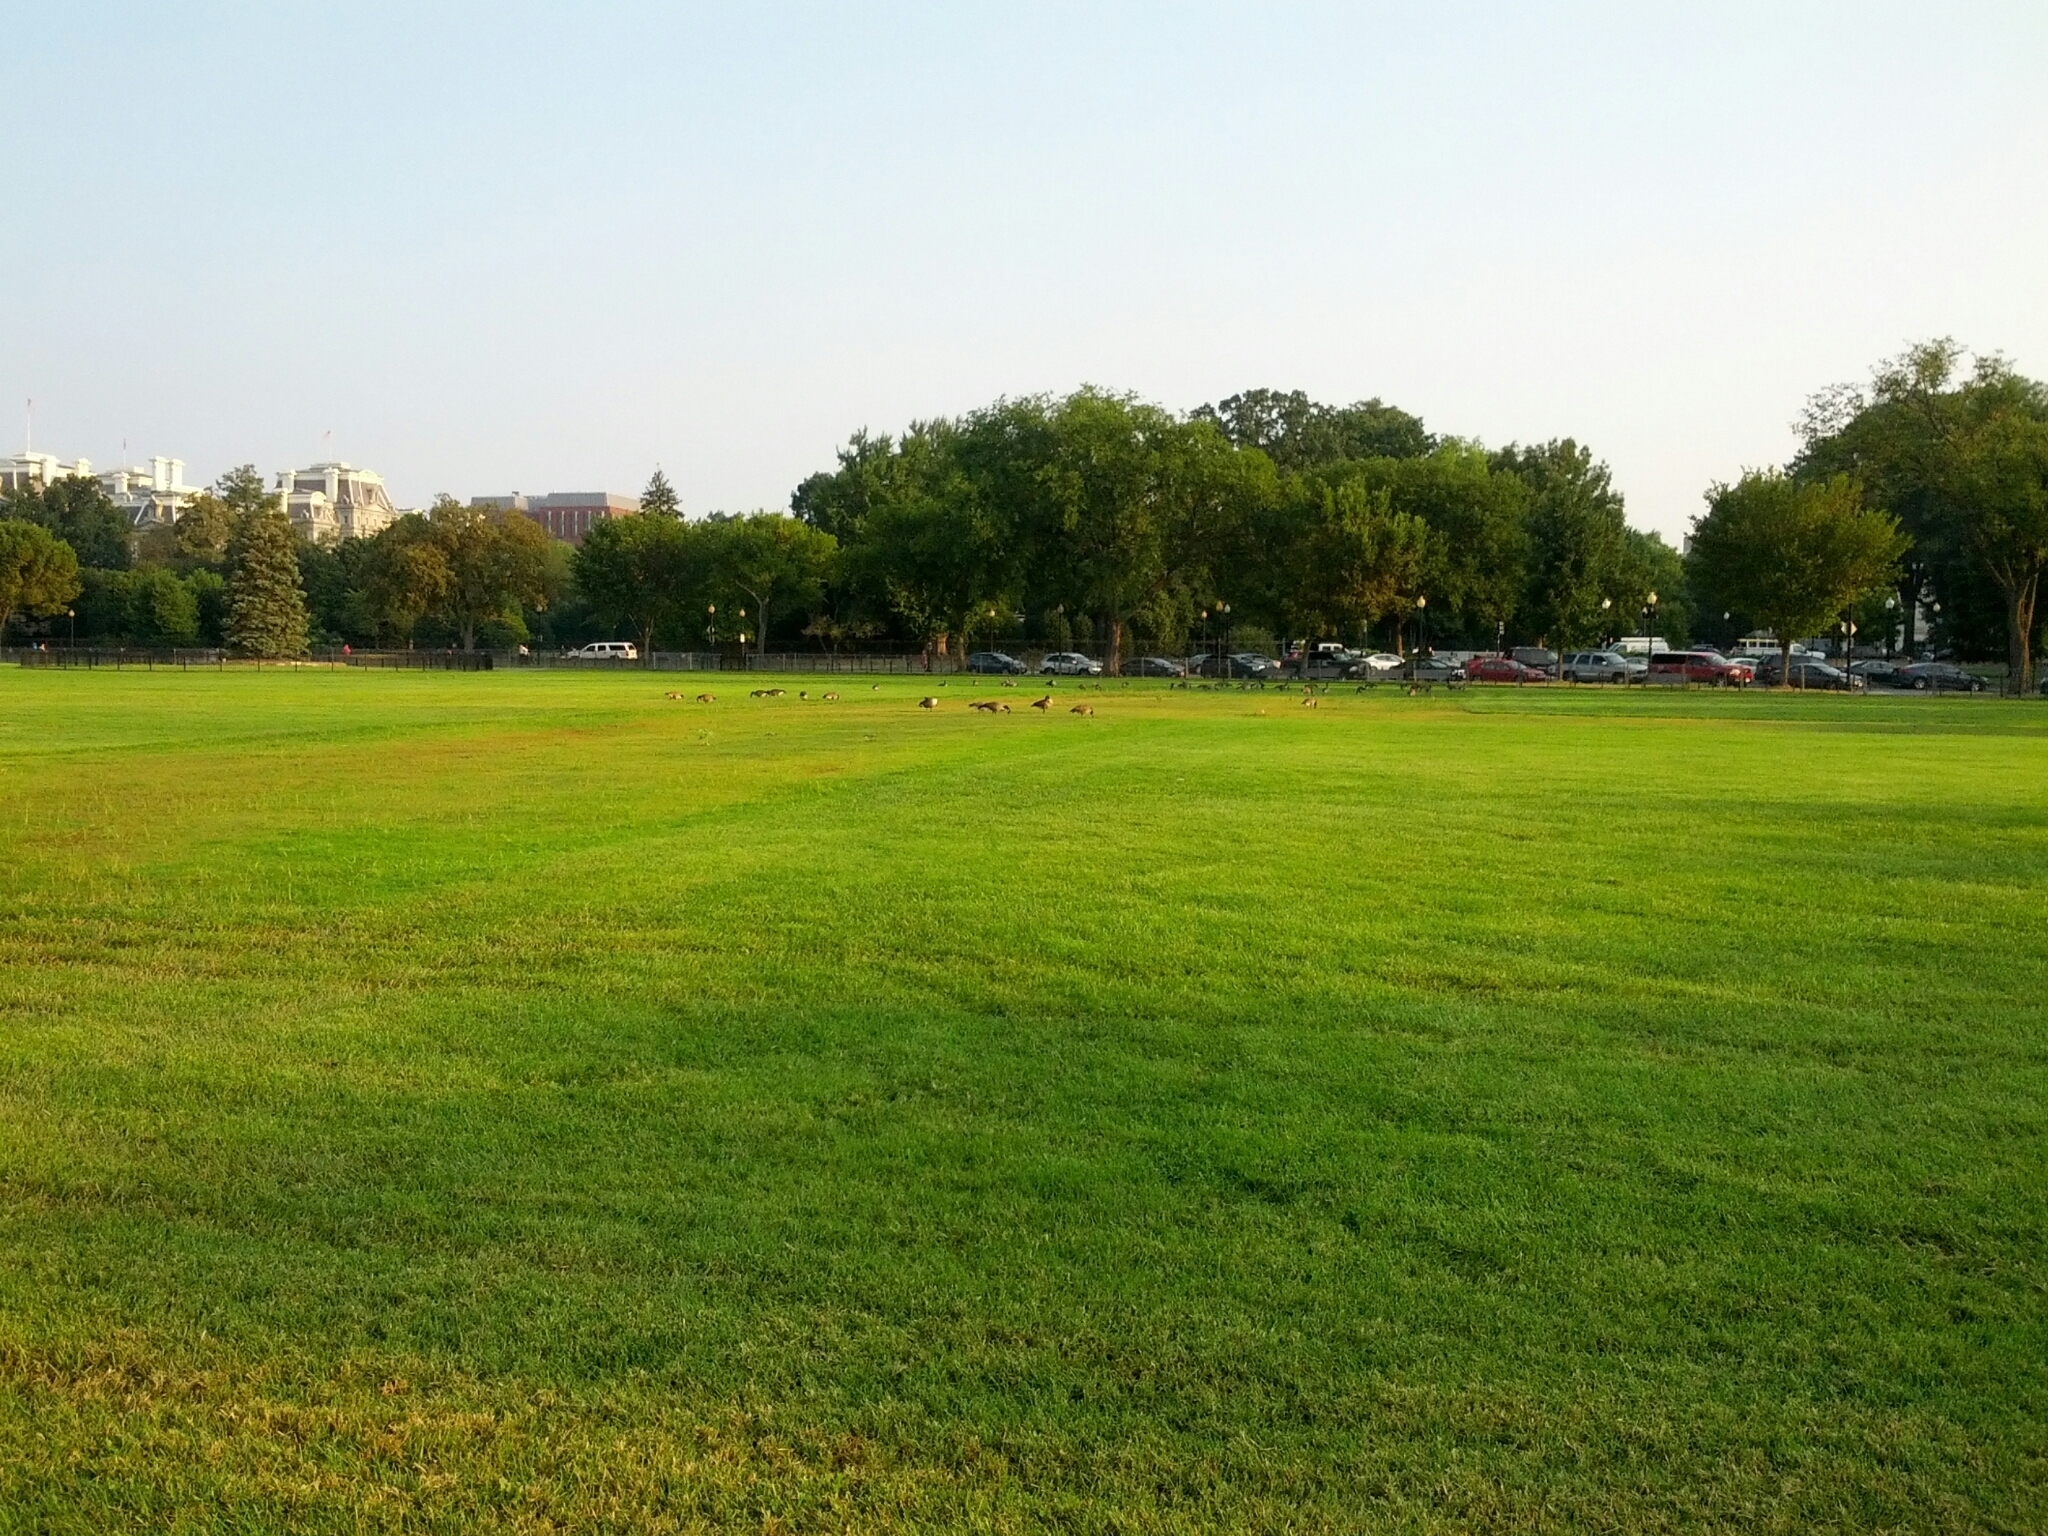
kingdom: Animalia
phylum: Chordata
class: Aves
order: Anseriformes
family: Anatidae
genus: Branta
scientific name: Branta canadensis
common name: Canada goose
